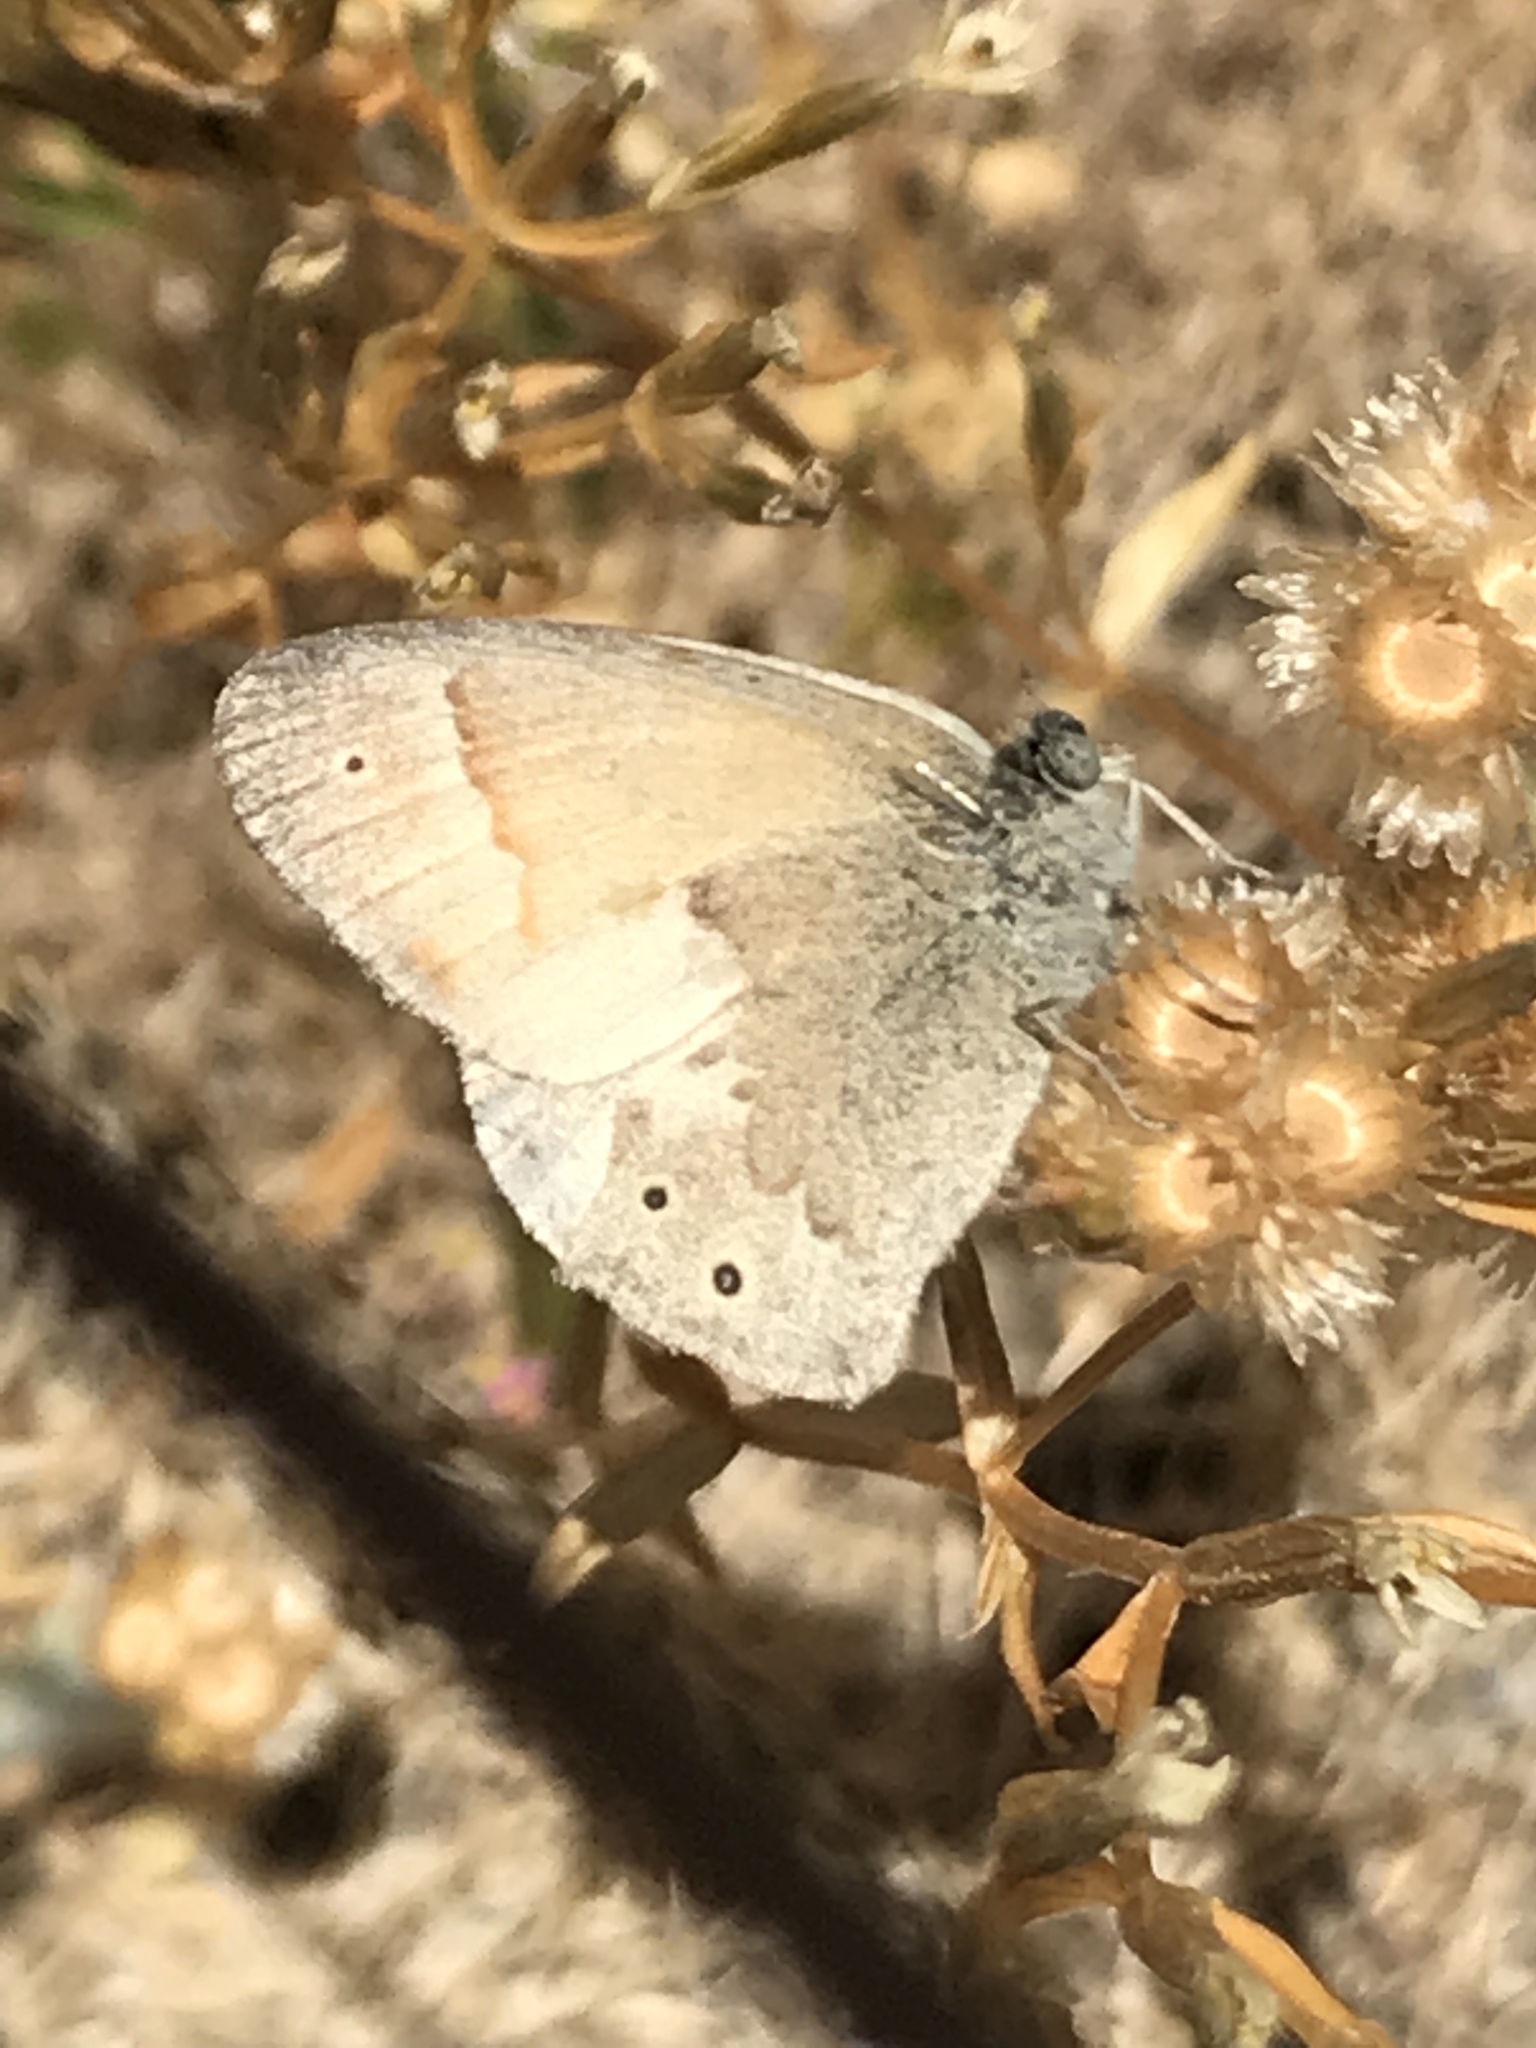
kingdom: Animalia
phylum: Arthropoda
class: Insecta
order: Lepidoptera
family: Nymphalidae
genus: Coenonympha
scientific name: Coenonympha california
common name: Common ringlet
